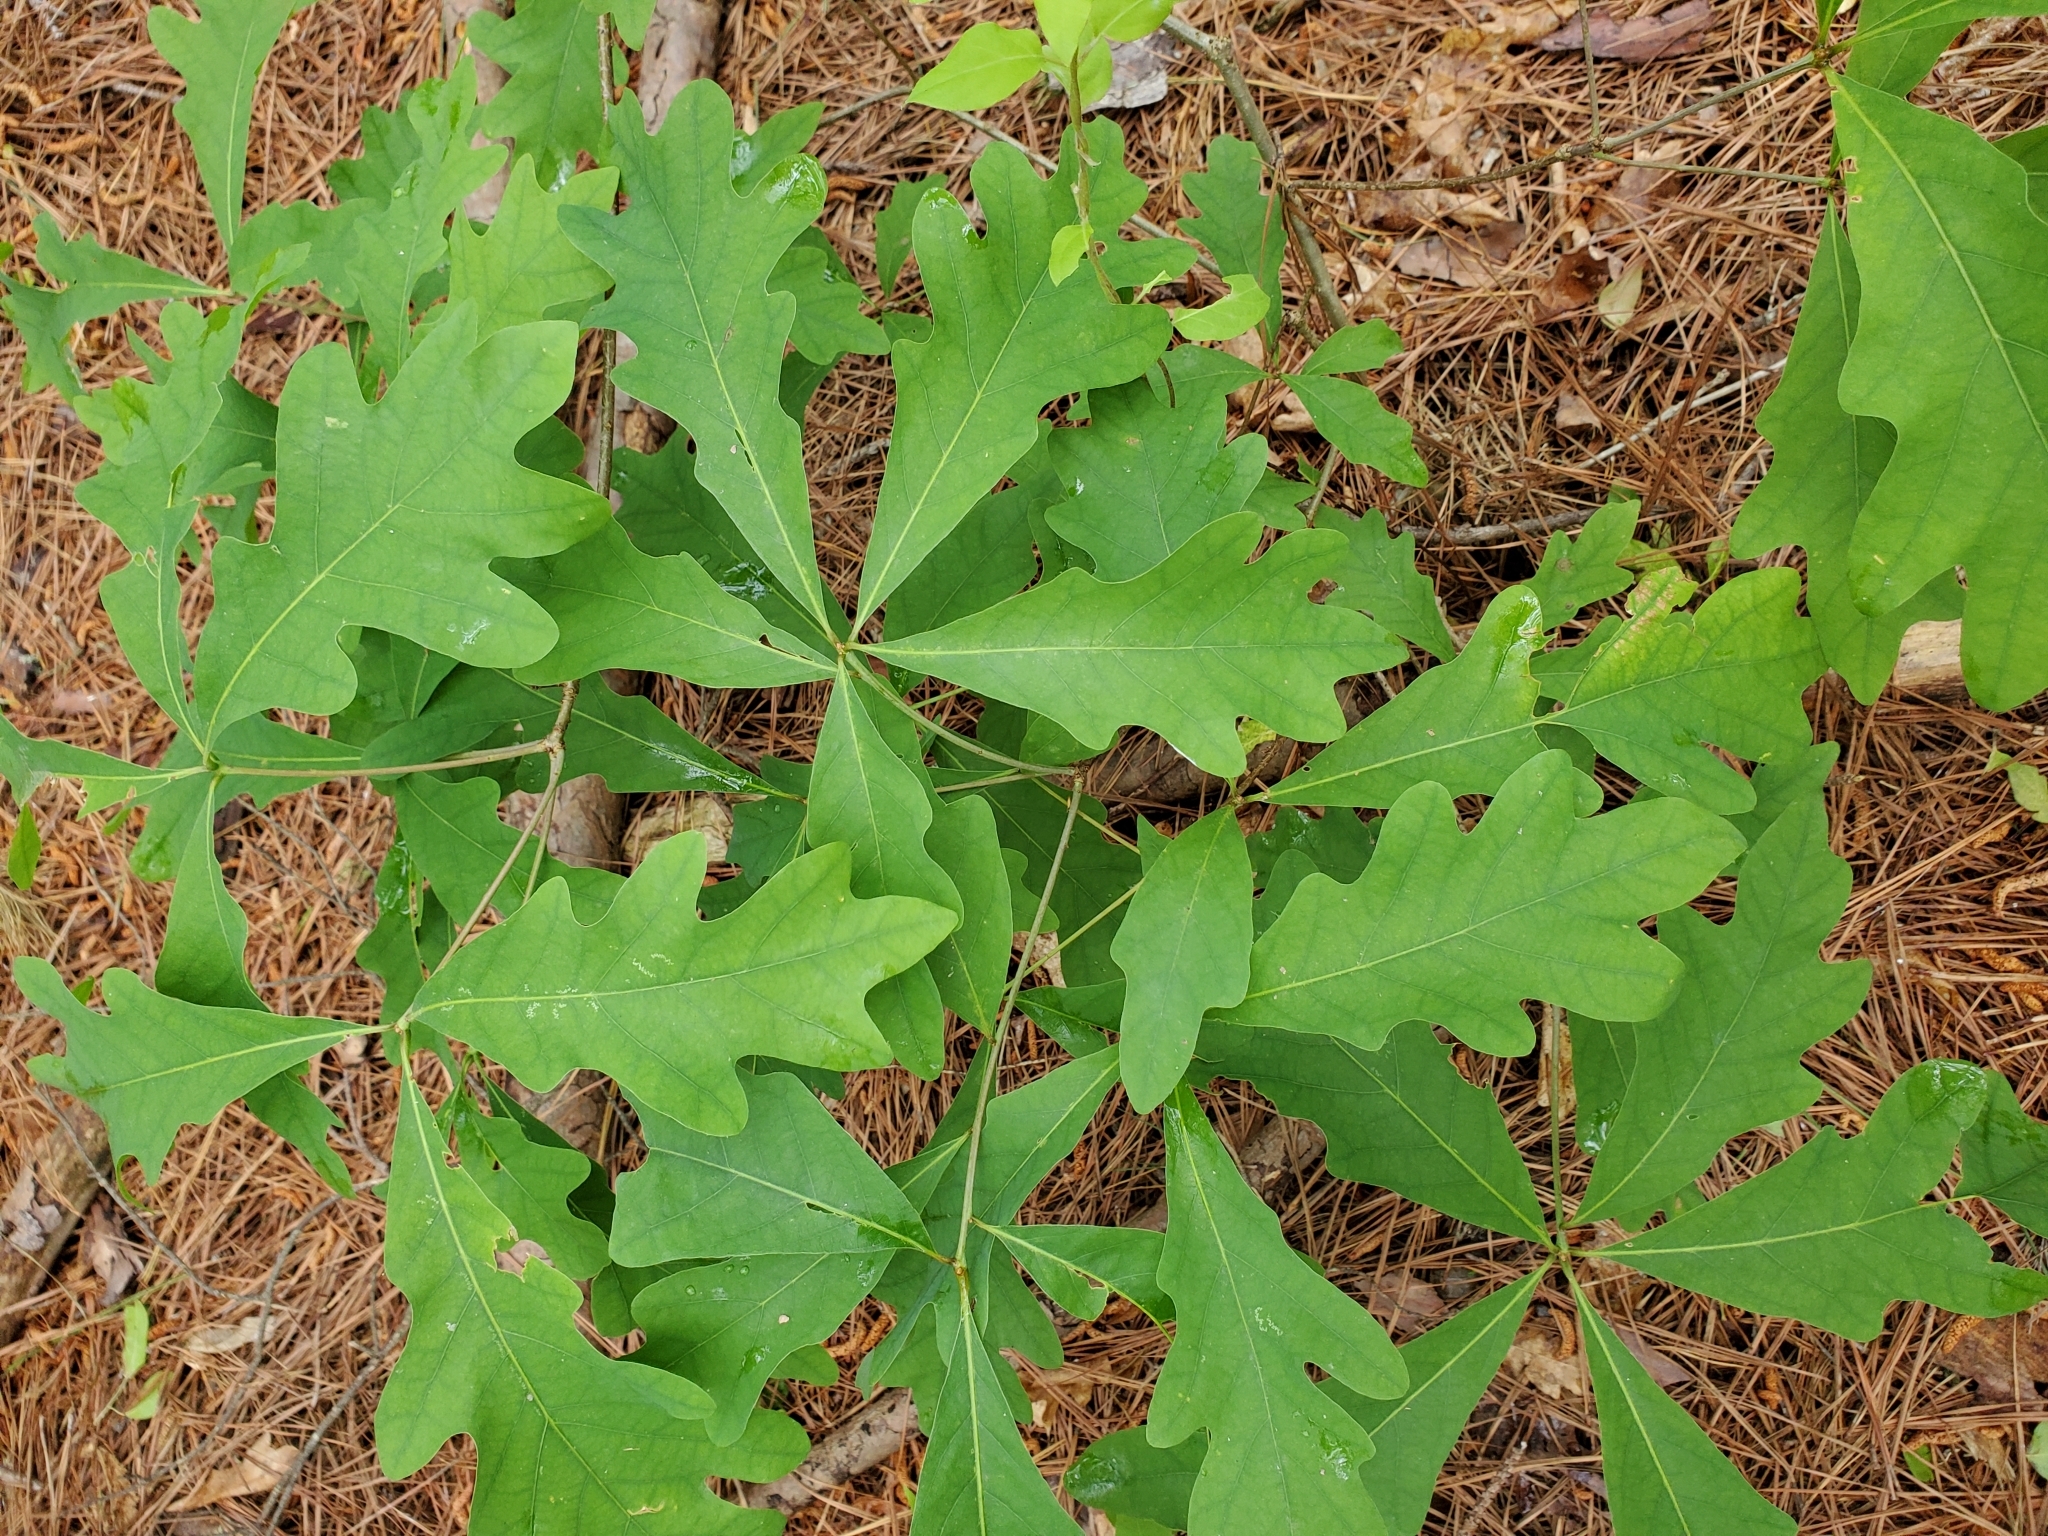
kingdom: Plantae
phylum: Tracheophyta
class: Magnoliopsida
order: Fagales
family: Fagaceae
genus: Quercus
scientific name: Quercus alba
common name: White oak
